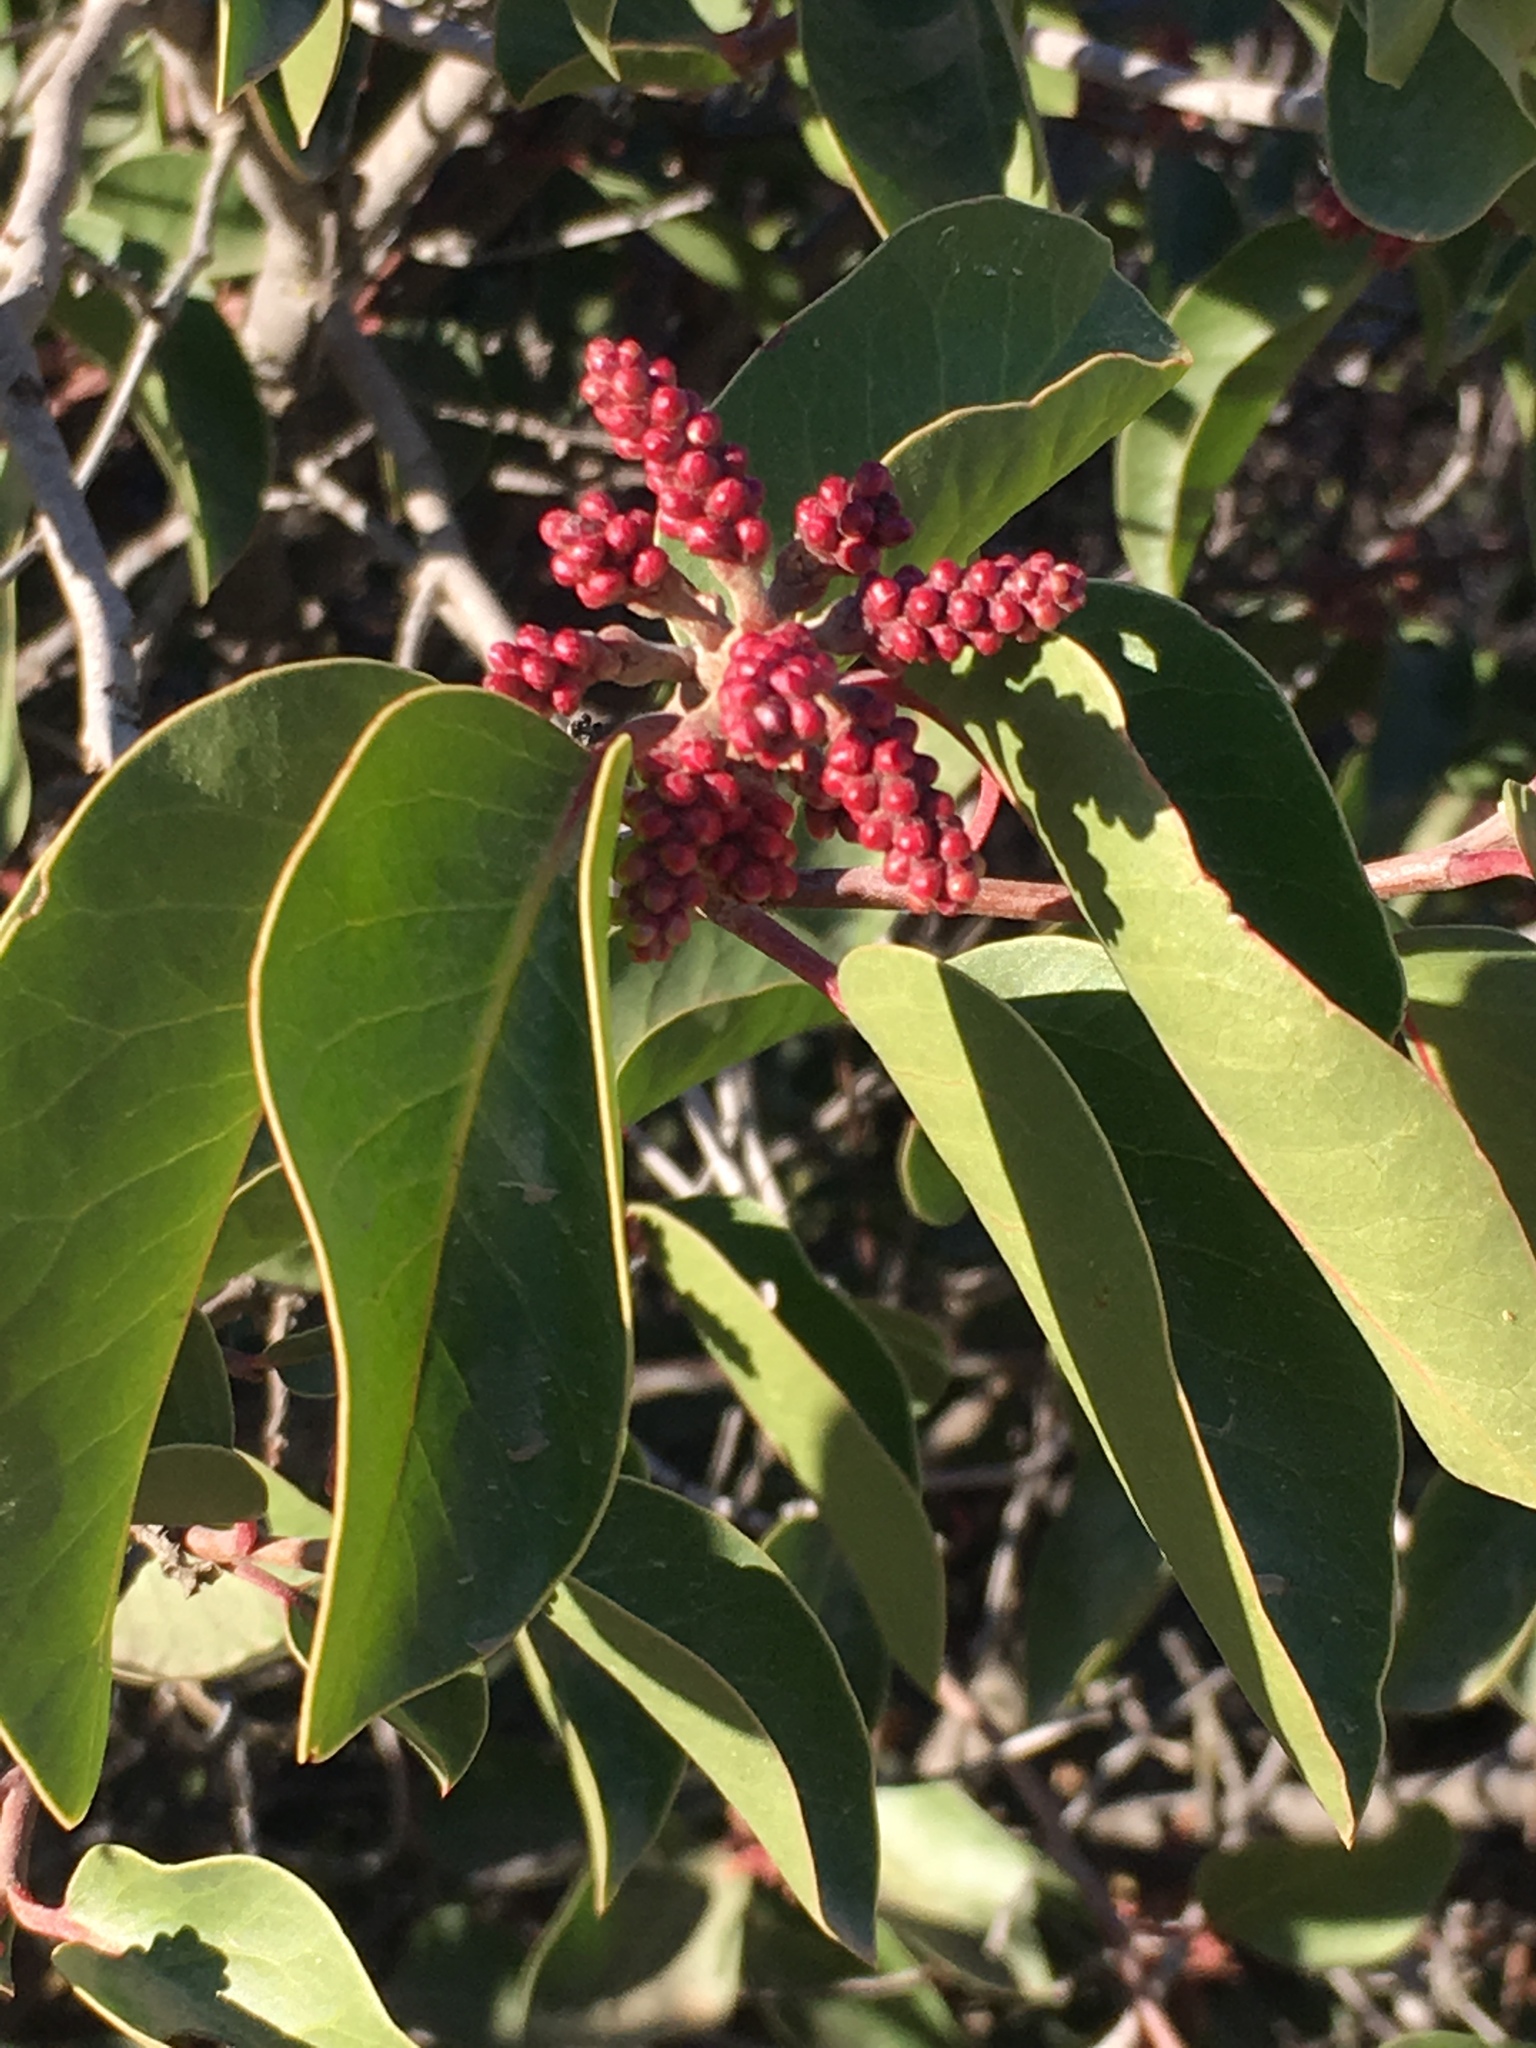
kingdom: Plantae
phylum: Tracheophyta
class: Magnoliopsida
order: Sapindales
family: Anacardiaceae
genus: Rhus
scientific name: Rhus ovata
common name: Sugar sumac
